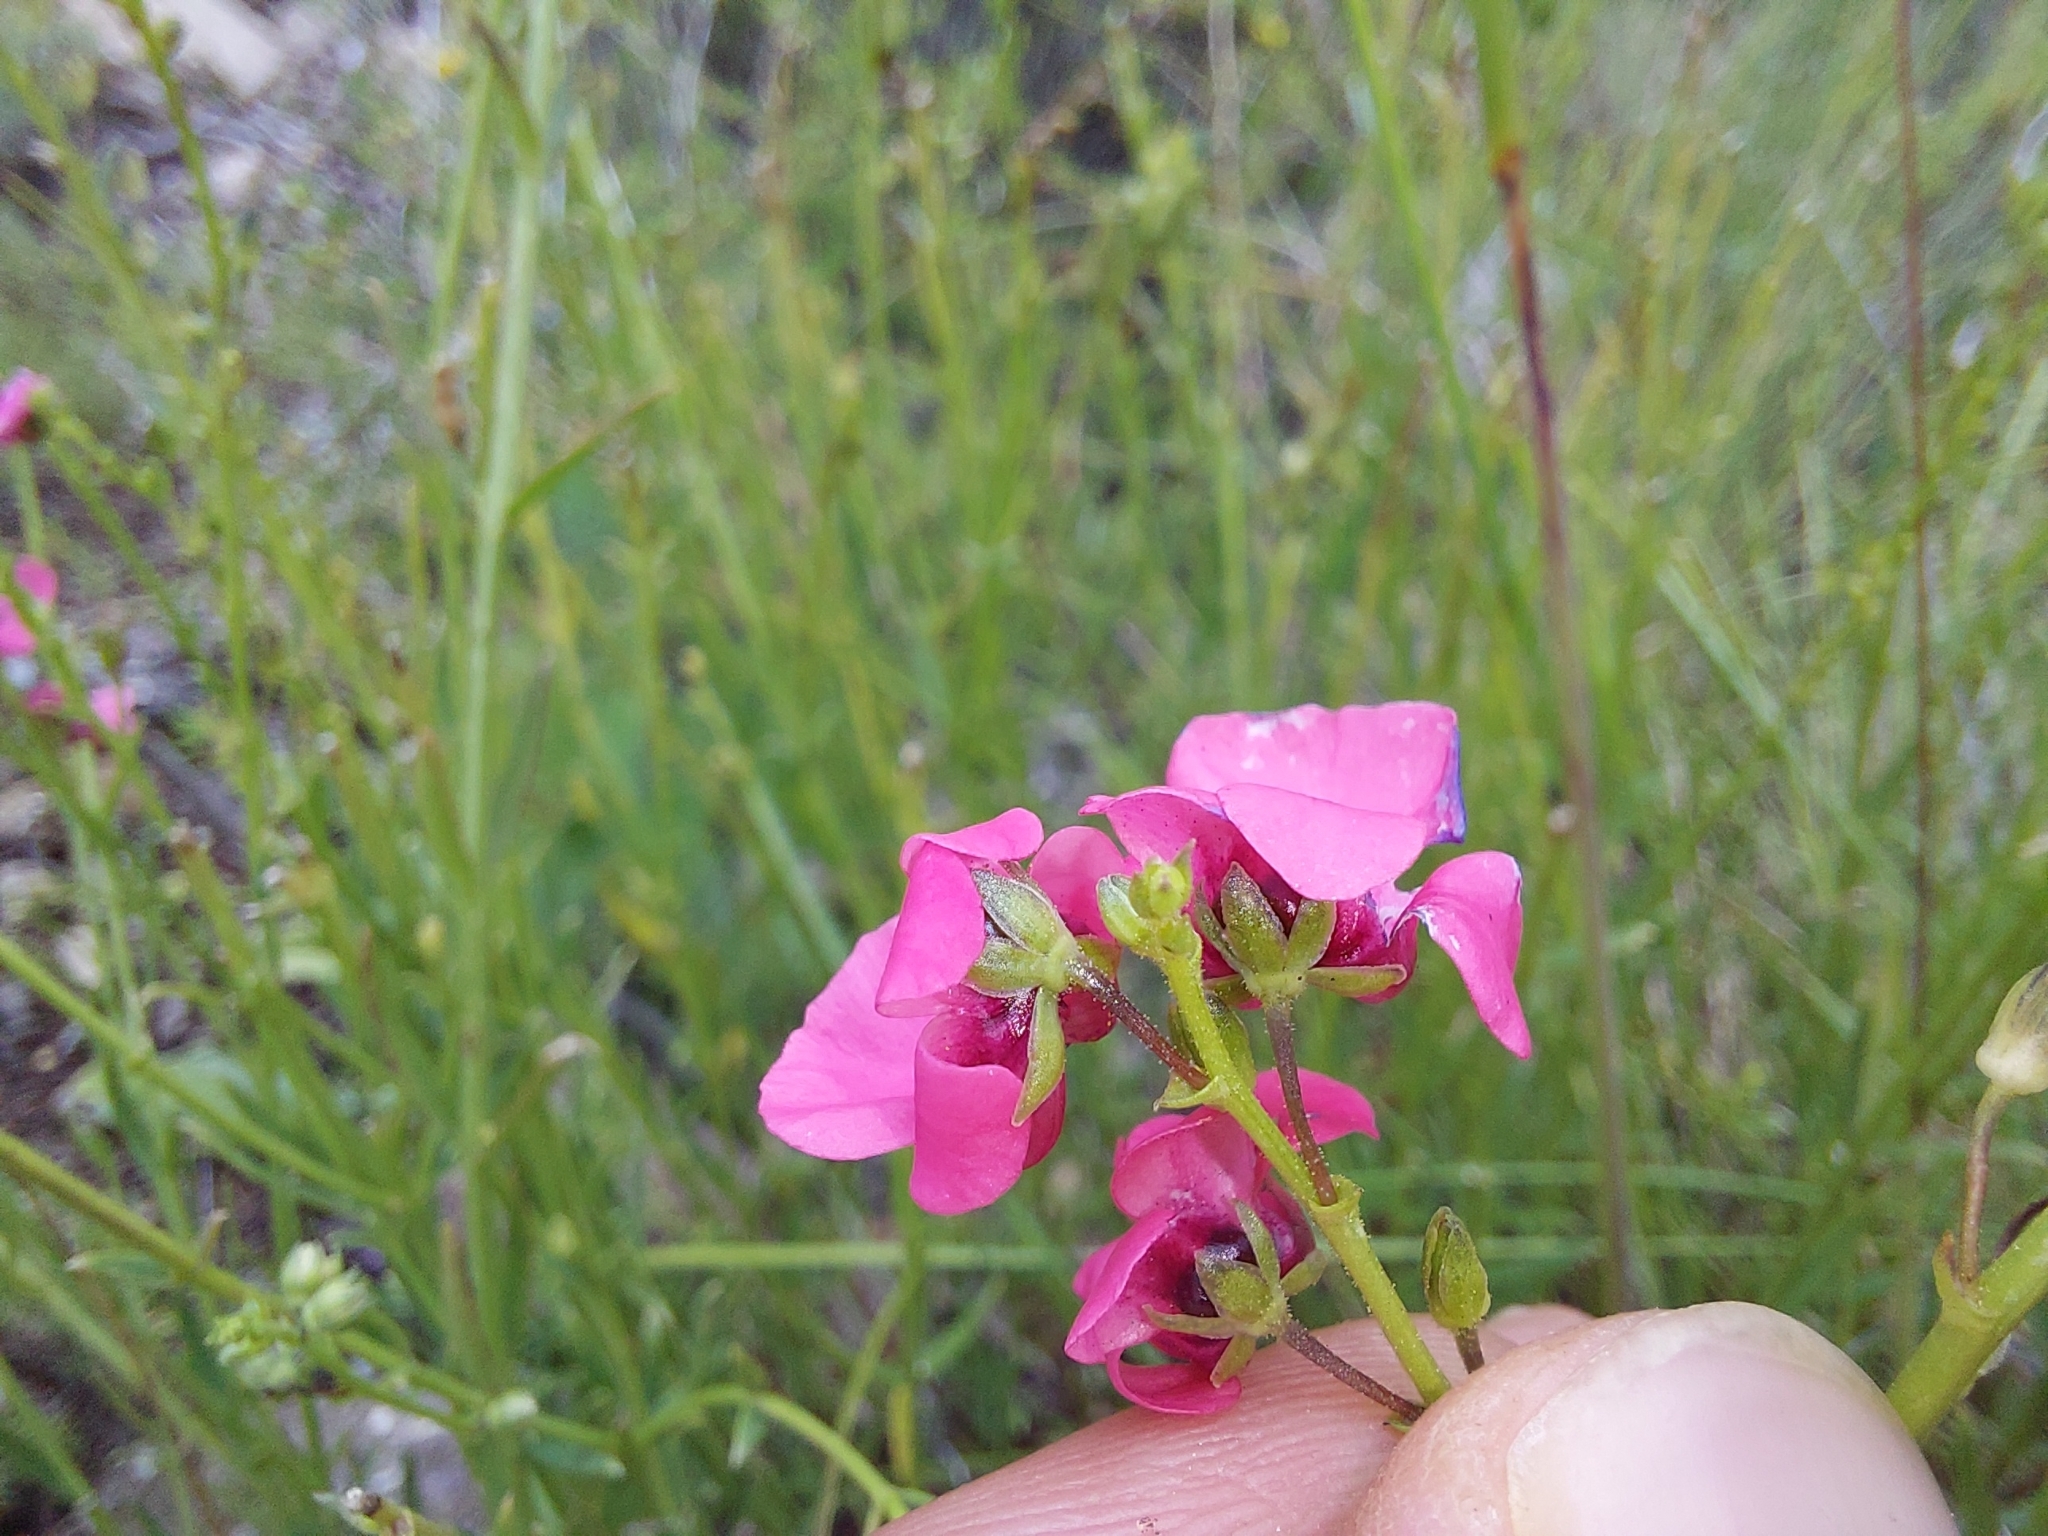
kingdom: Plantae
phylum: Tracheophyta
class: Magnoliopsida
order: Lamiales
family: Scrophulariaceae
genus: Diascia
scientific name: Diascia barberae
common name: Twinspur
